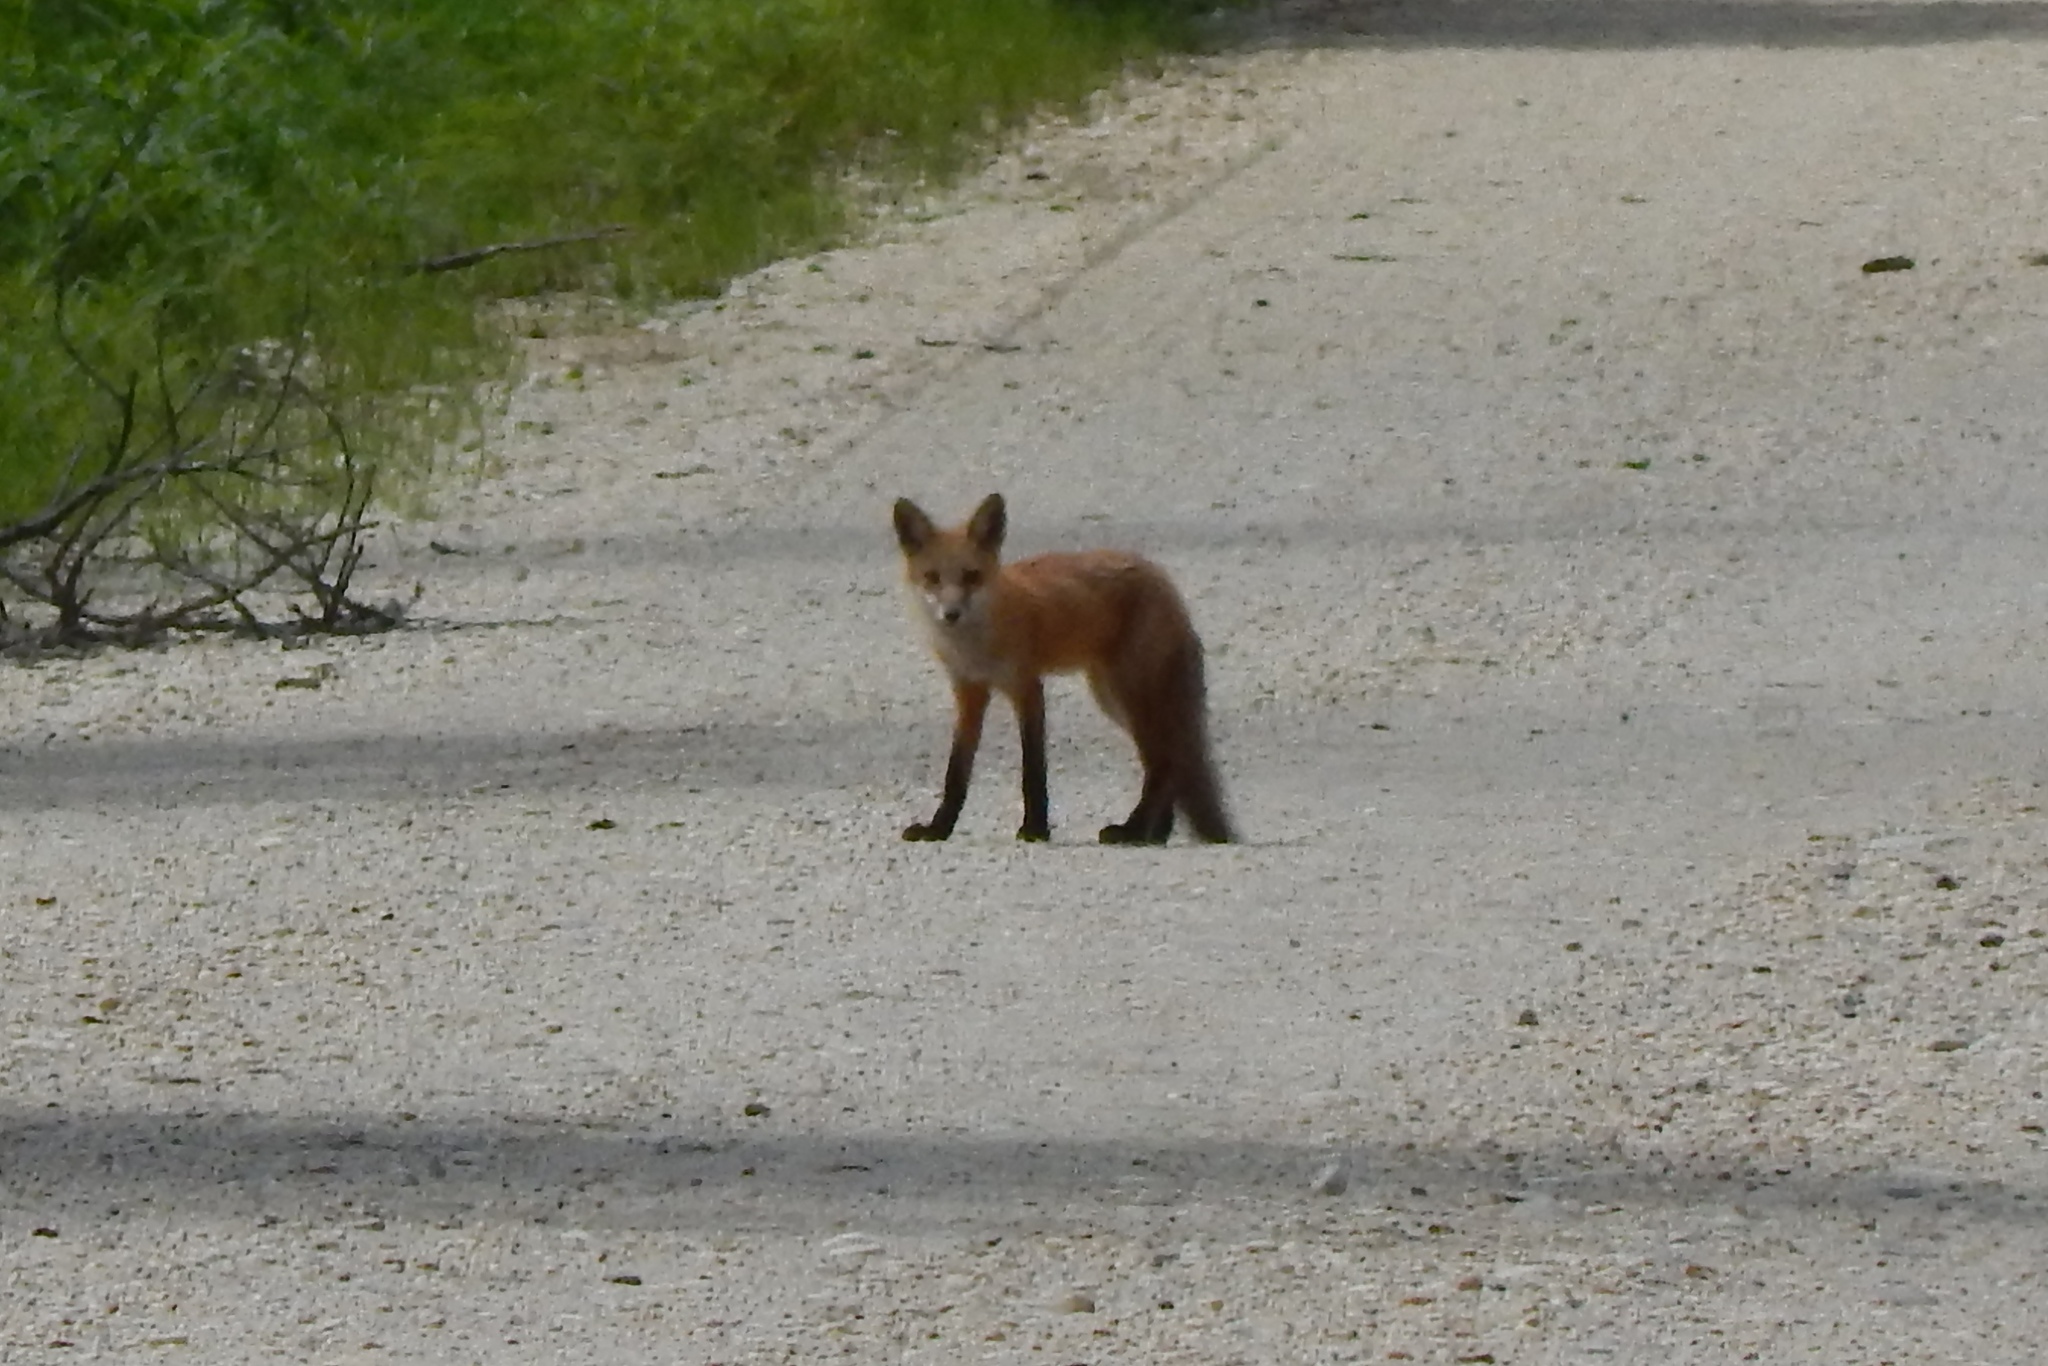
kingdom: Animalia
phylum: Chordata
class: Mammalia
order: Carnivora
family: Canidae
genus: Vulpes
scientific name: Vulpes vulpes
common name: Red fox
